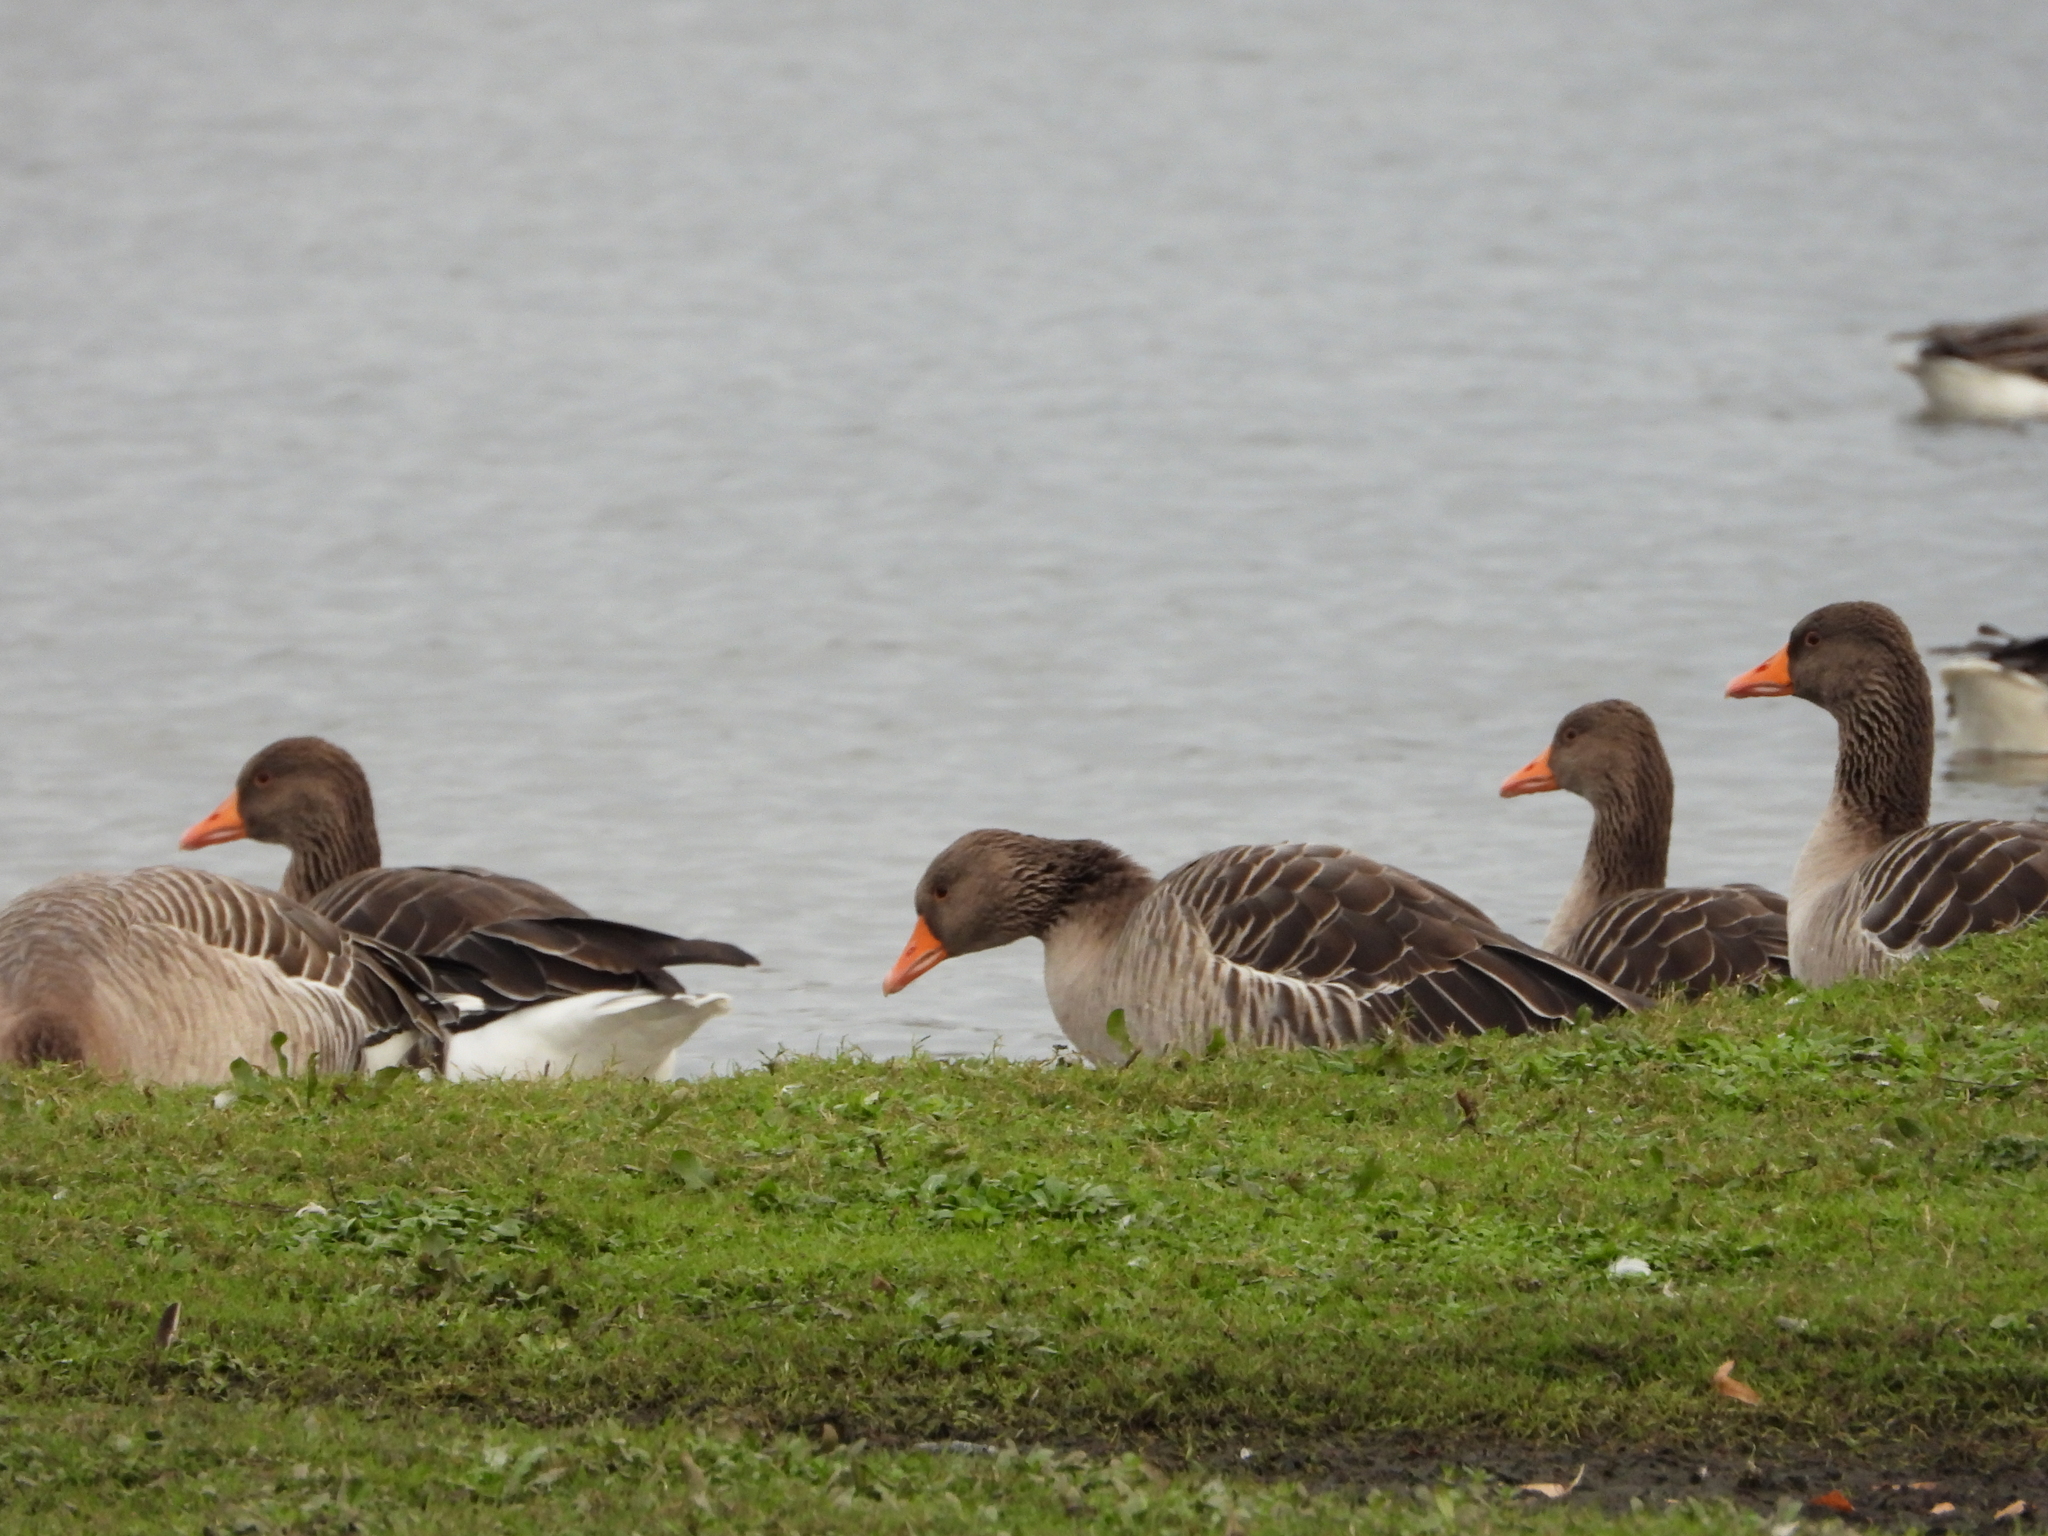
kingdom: Animalia
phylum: Chordata
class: Aves
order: Anseriformes
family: Anatidae
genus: Anser
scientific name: Anser anser
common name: Greylag goose
